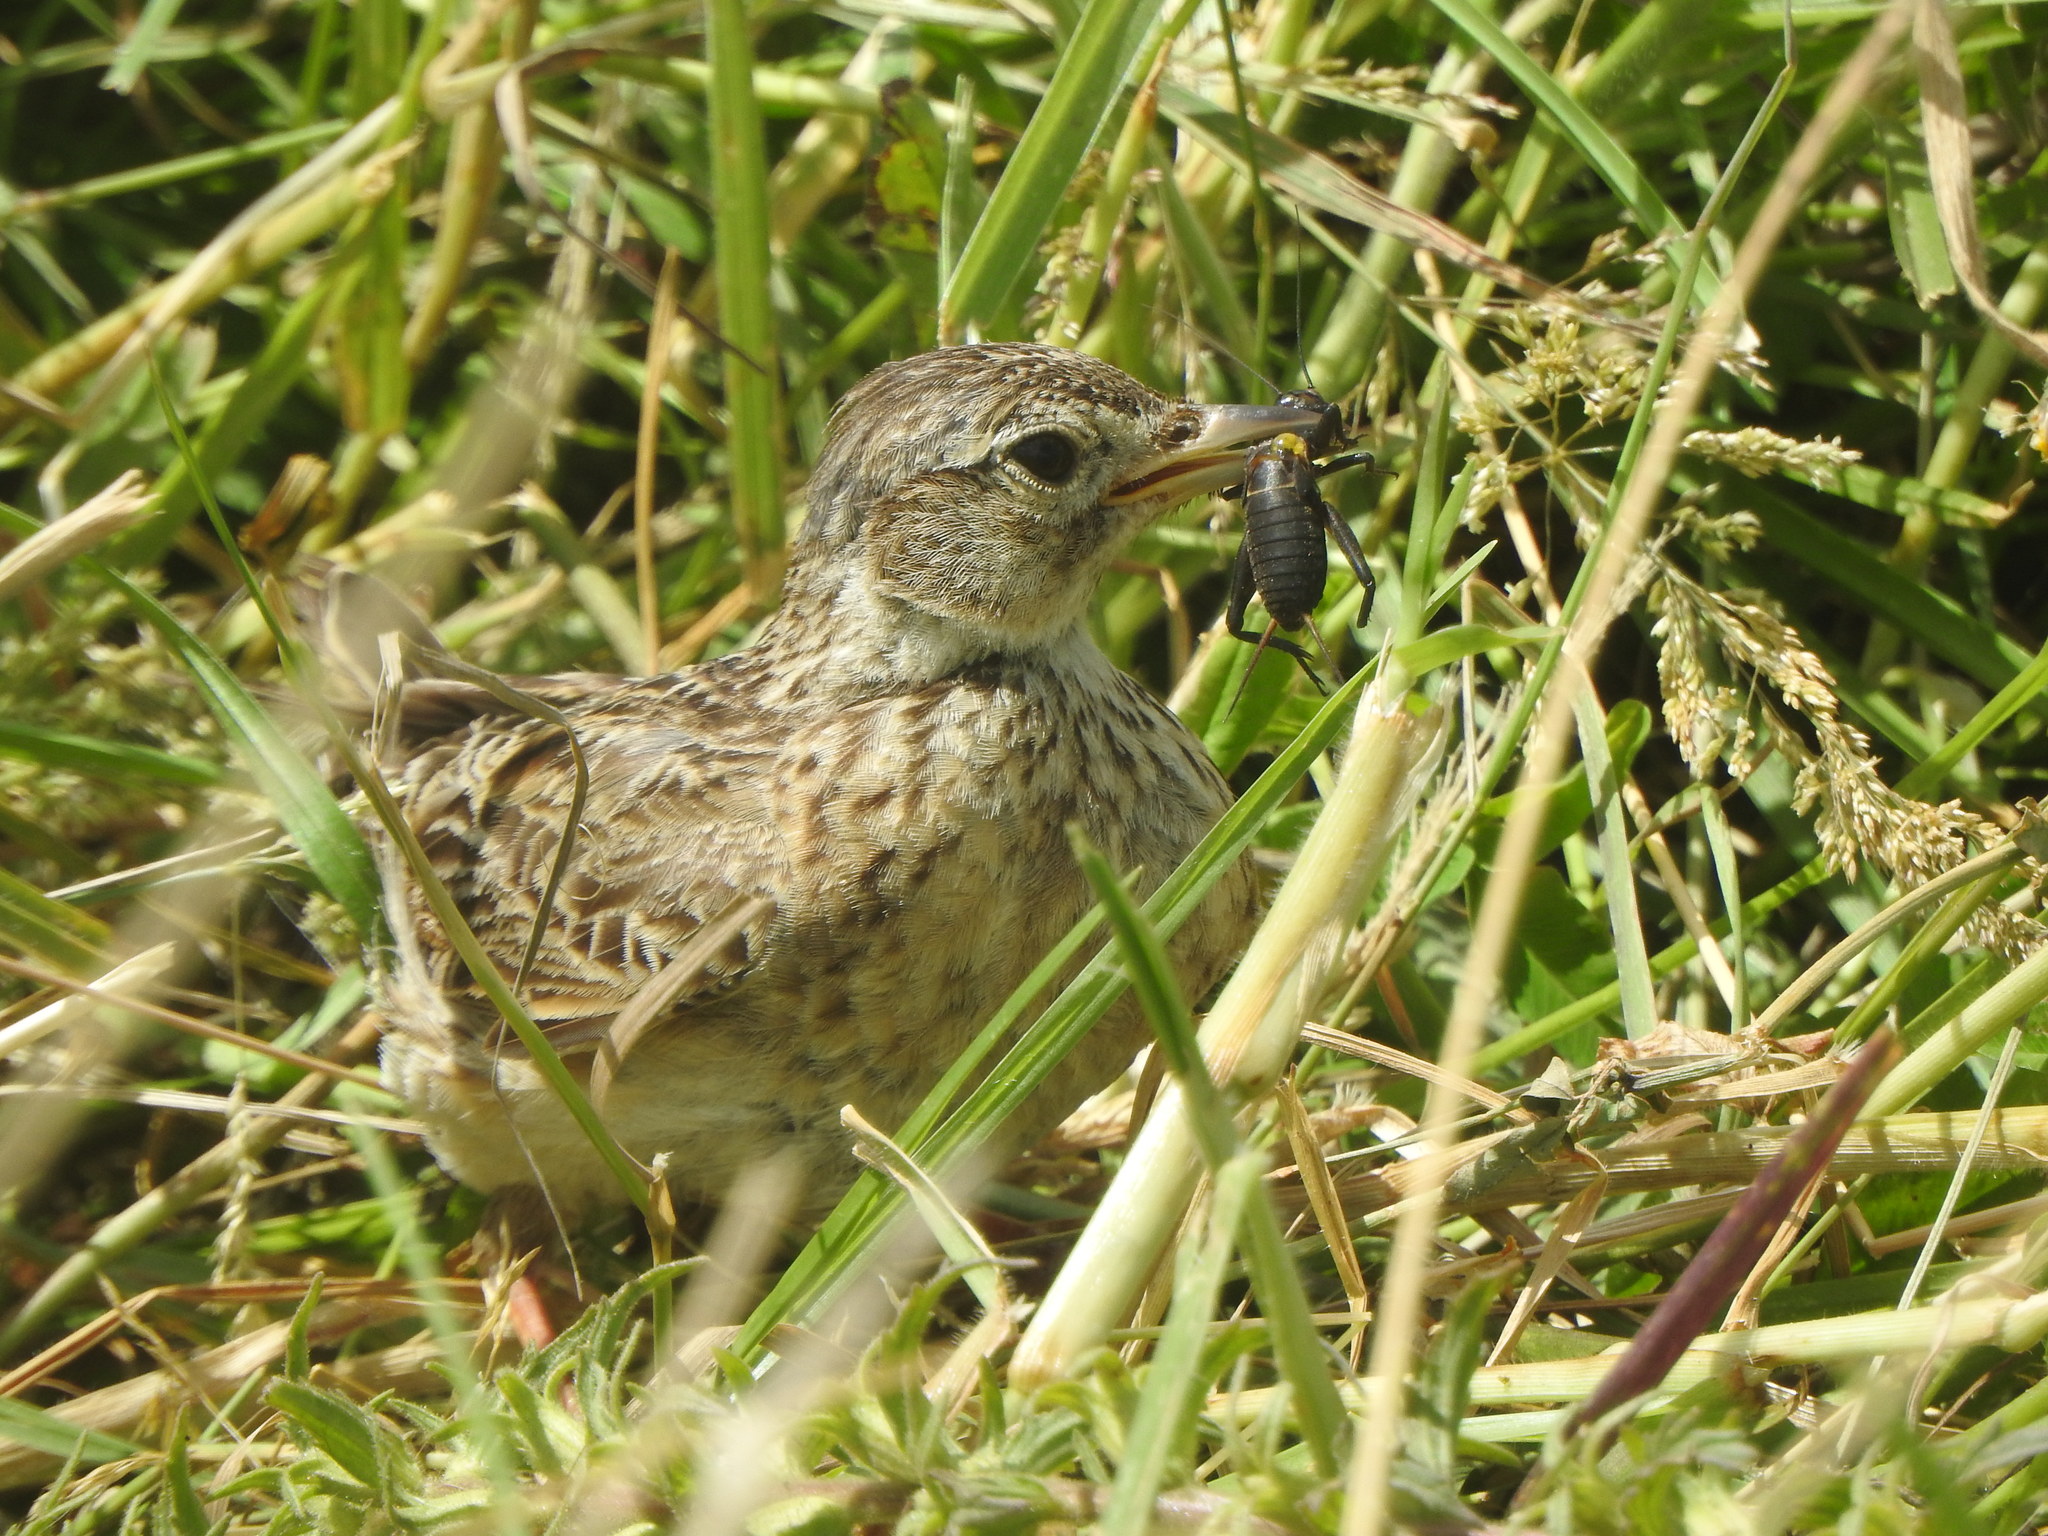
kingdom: Animalia
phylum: Chordata
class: Aves
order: Passeriformes
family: Alaudidae
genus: Alauda
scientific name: Alauda arvensis
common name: Eurasian skylark
